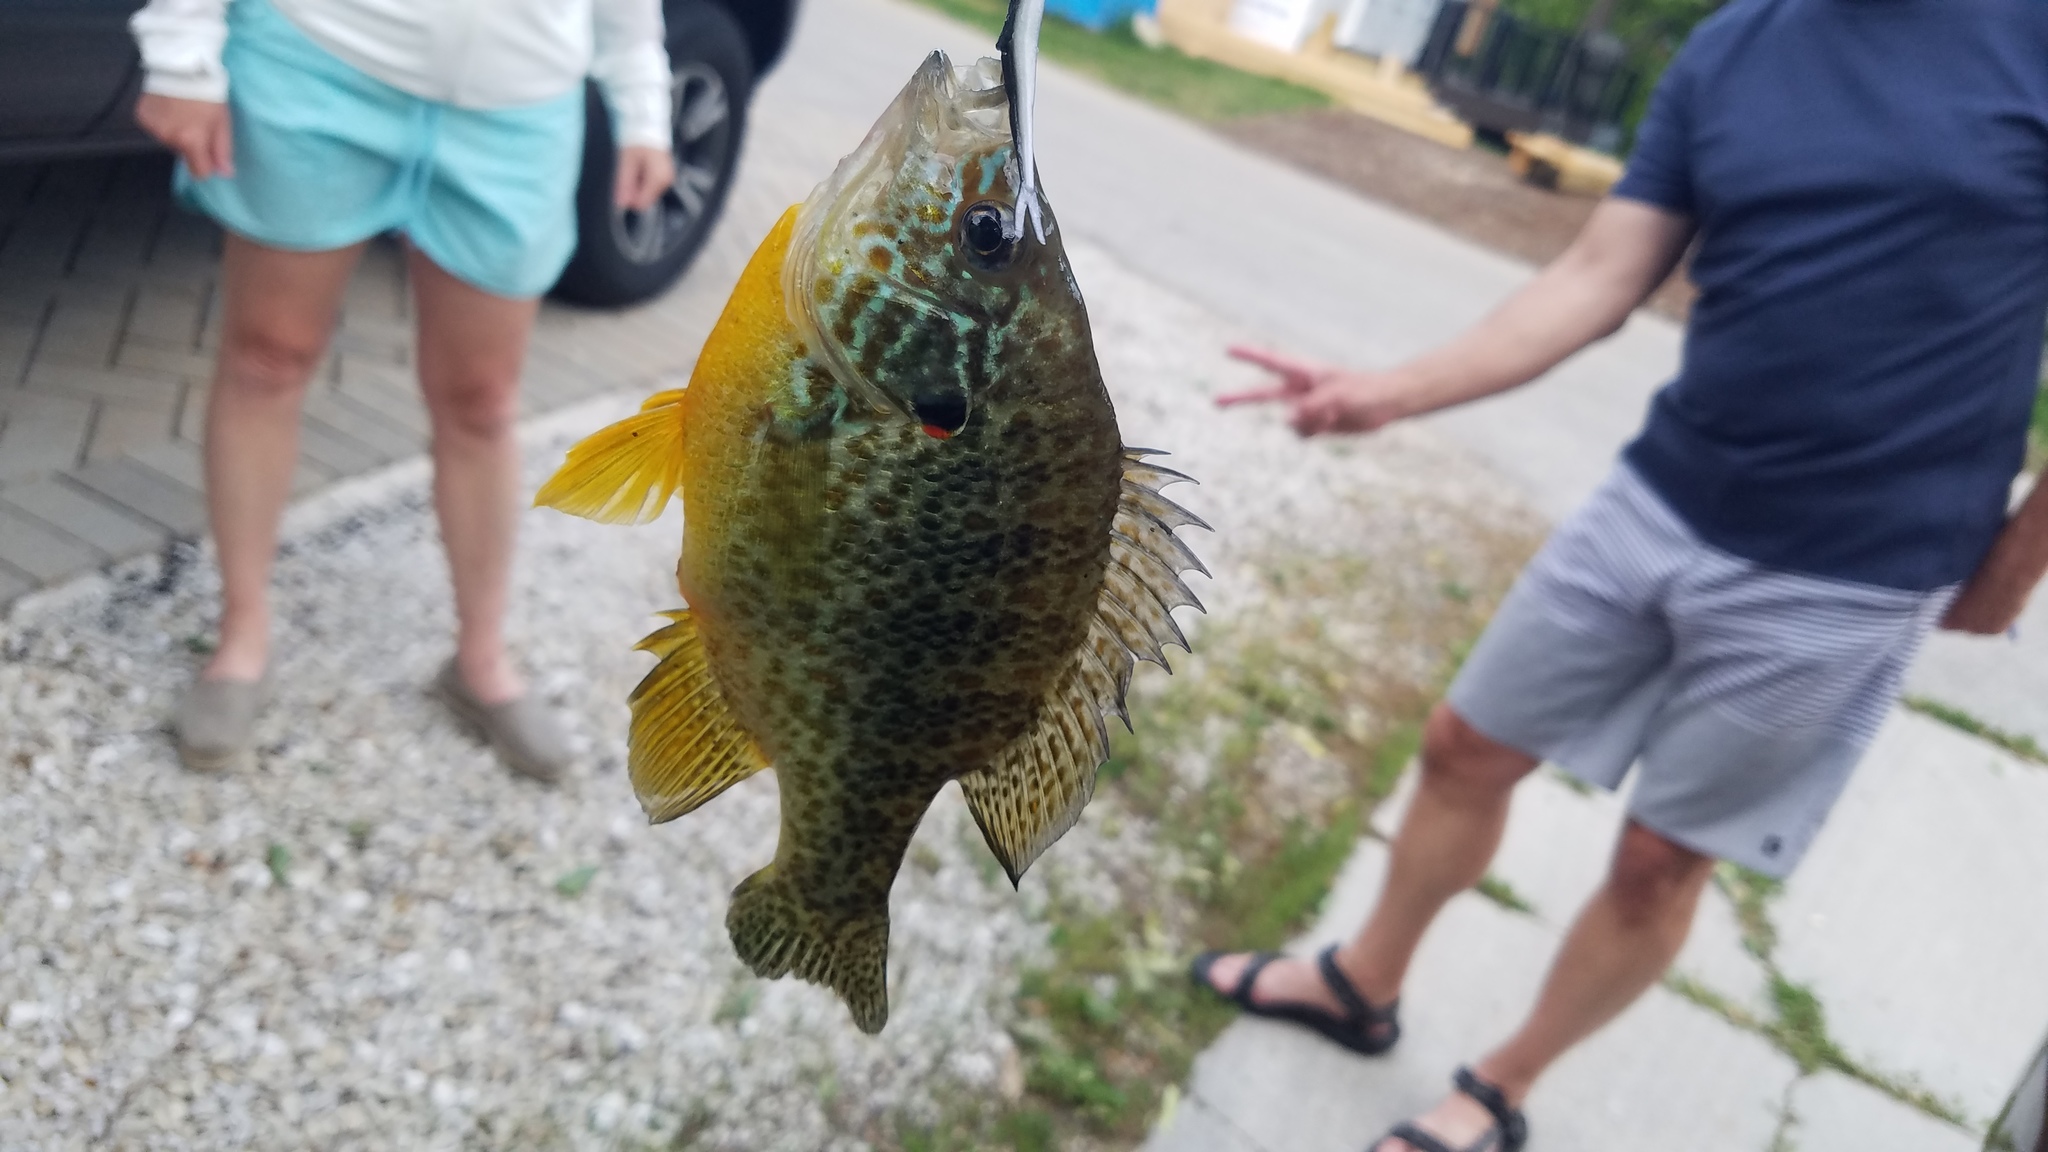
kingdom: Animalia
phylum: Chordata
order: Perciformes
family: Centrarchidae
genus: Lepomis
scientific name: Lepomis gibbosus
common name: Pumpkinseed
